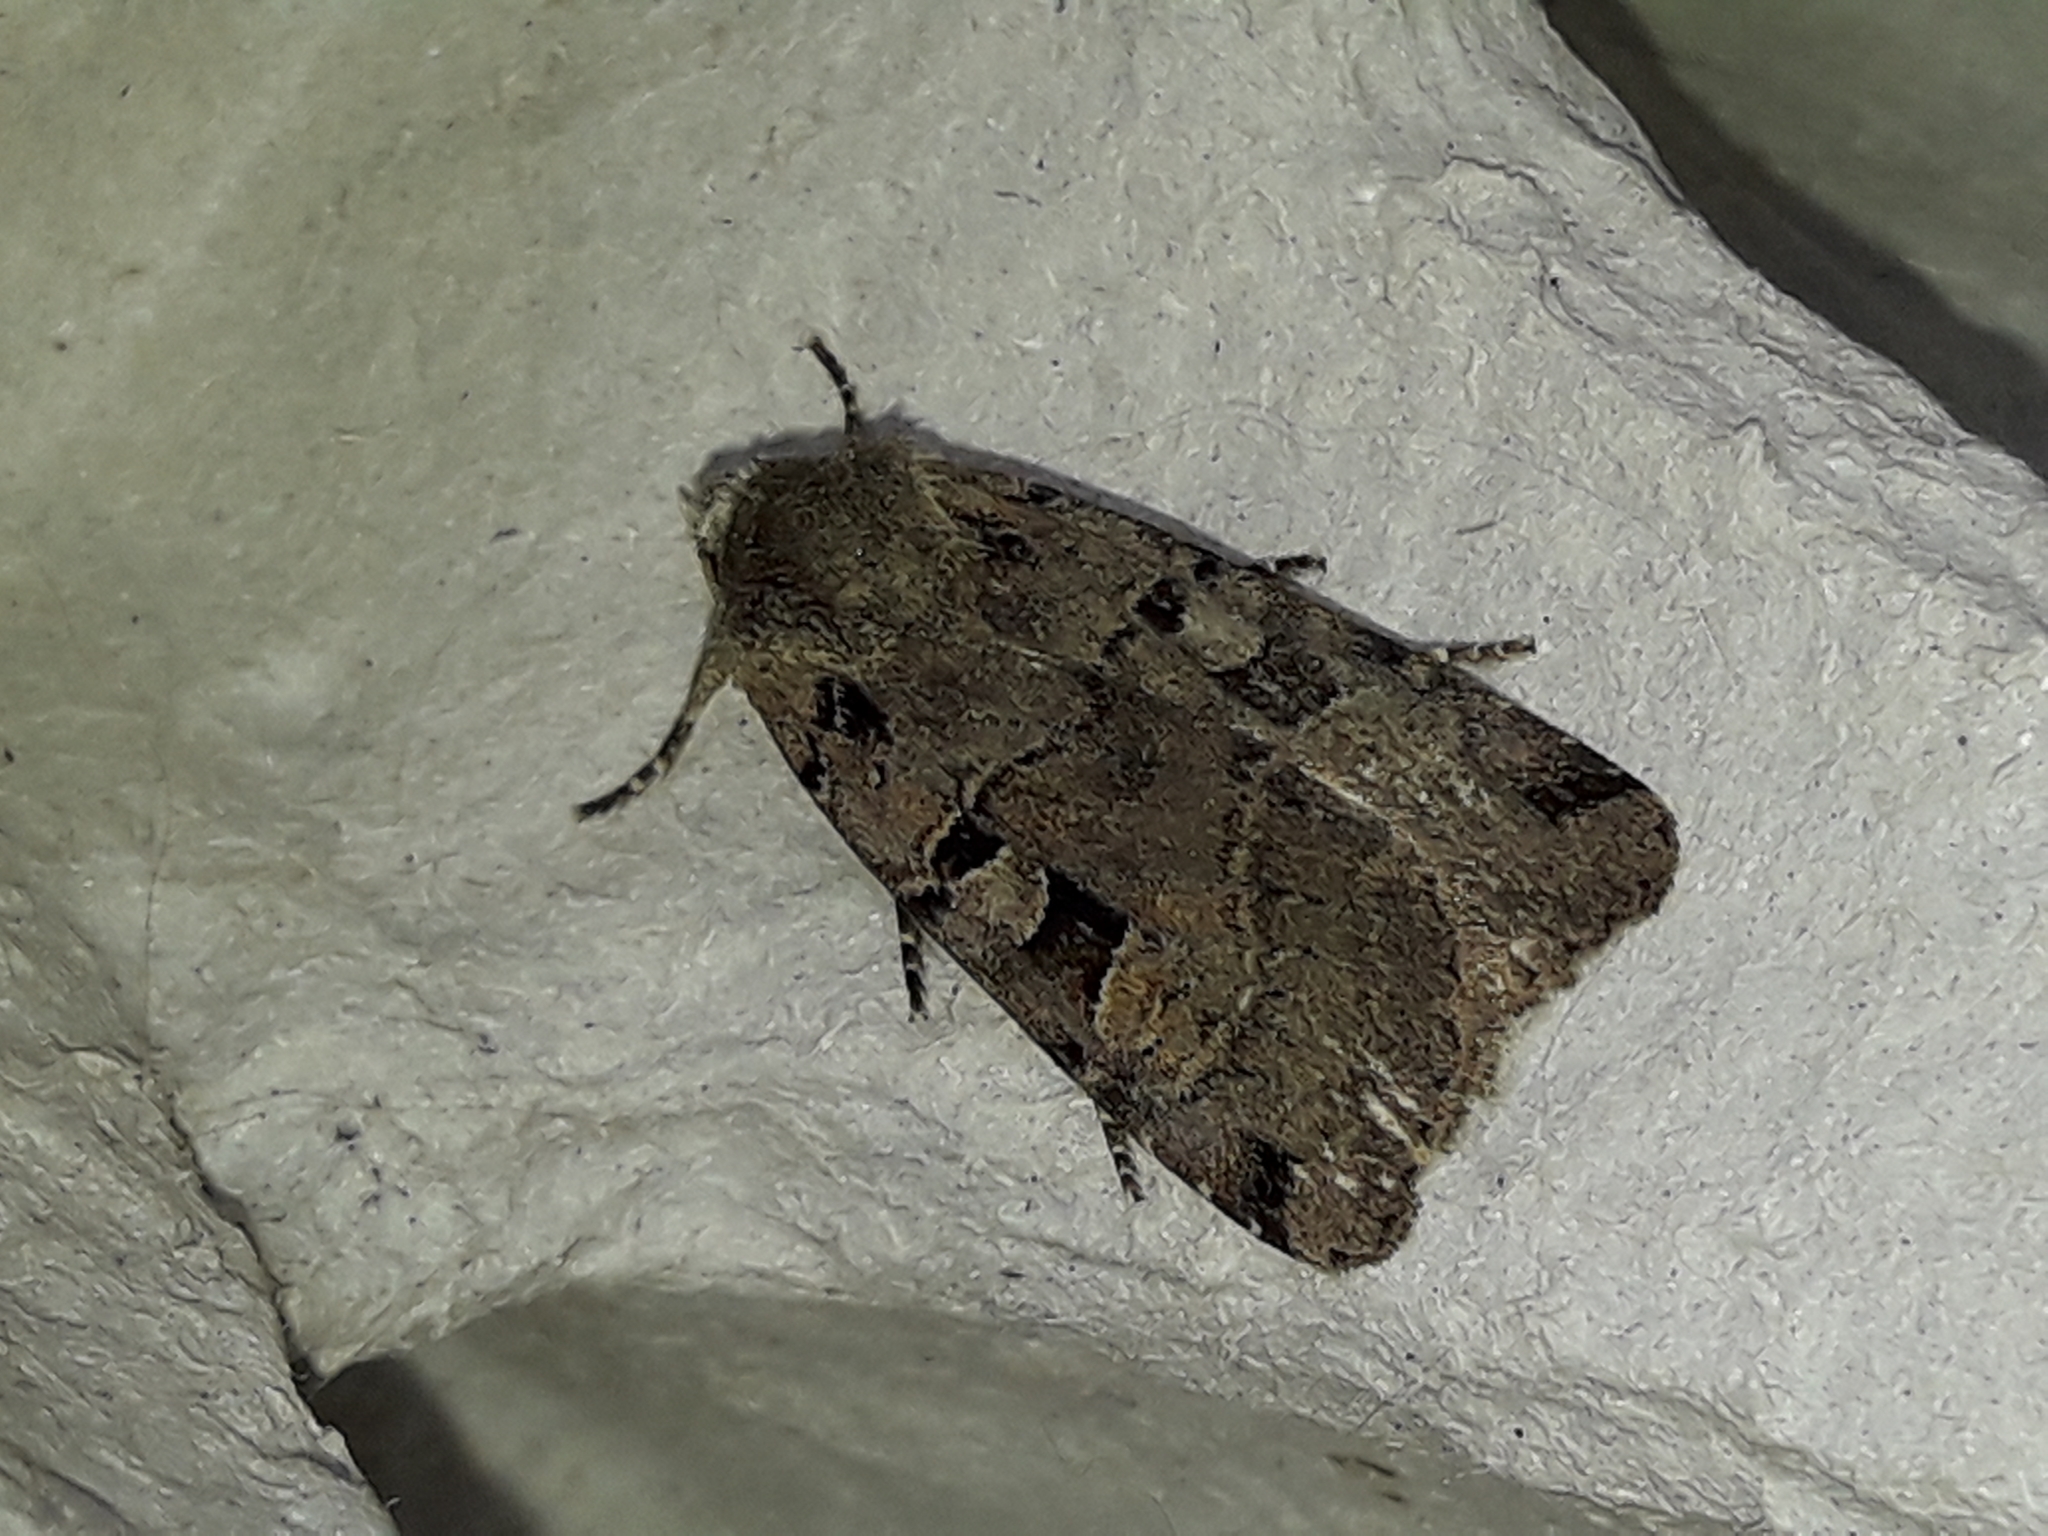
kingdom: Animalia
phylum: Arthropoda
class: Insecta
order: Lepidoptera
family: Noctuidae
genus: Xestia
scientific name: Xestia triangulum
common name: Double square-spot
